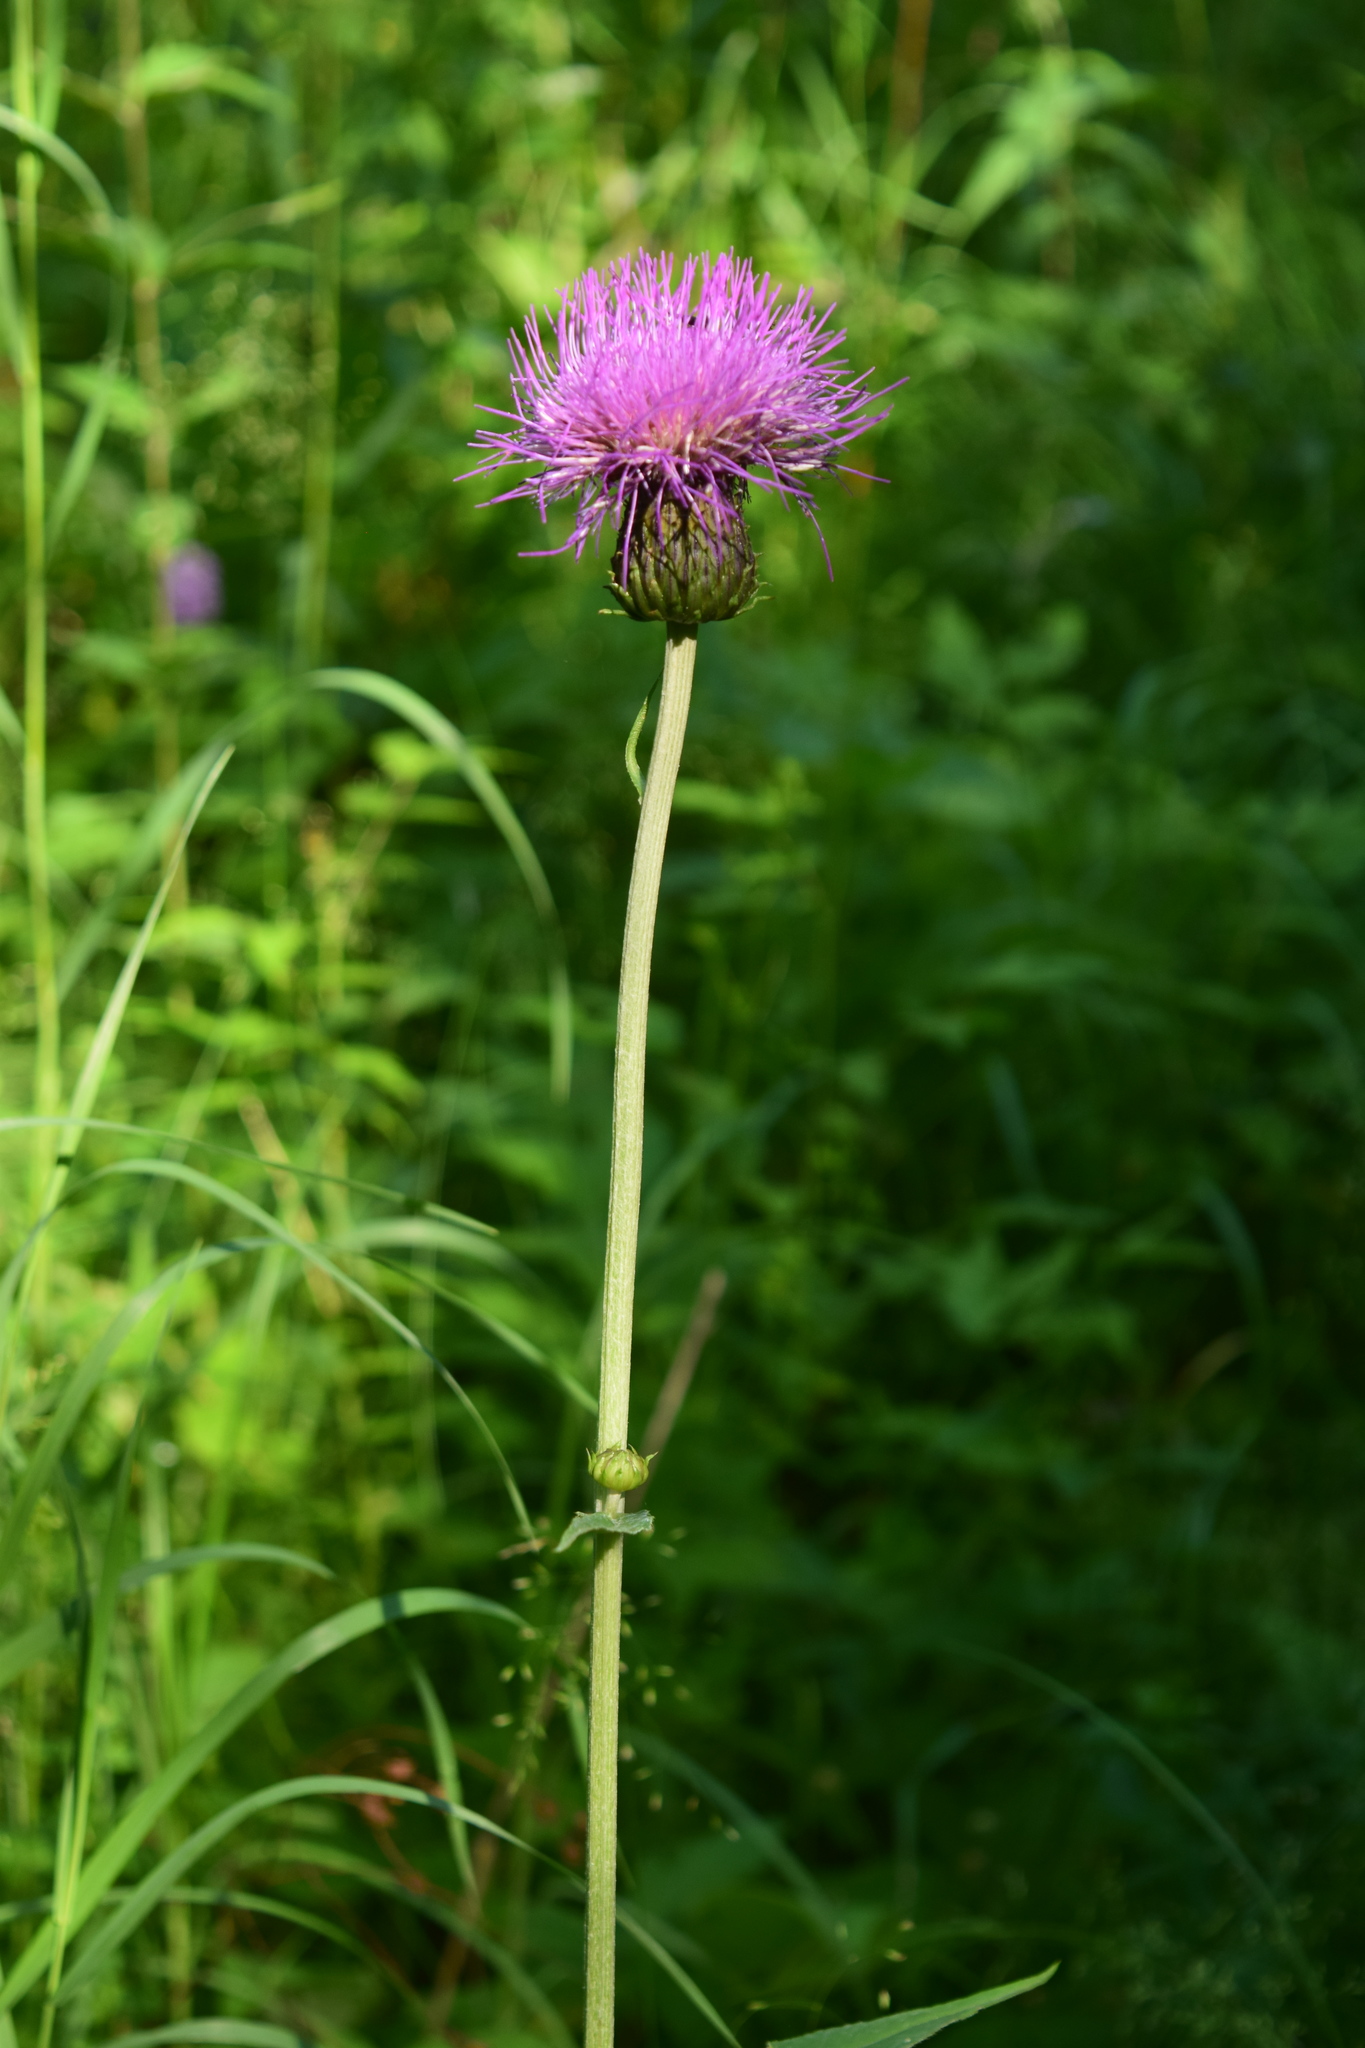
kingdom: Plantae
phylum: Tracheophyta
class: Magnoliopsida
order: Asterales
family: Asteraceae
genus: Cirsium
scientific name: Cirsium heterophyllum
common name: Melancholy thistle
